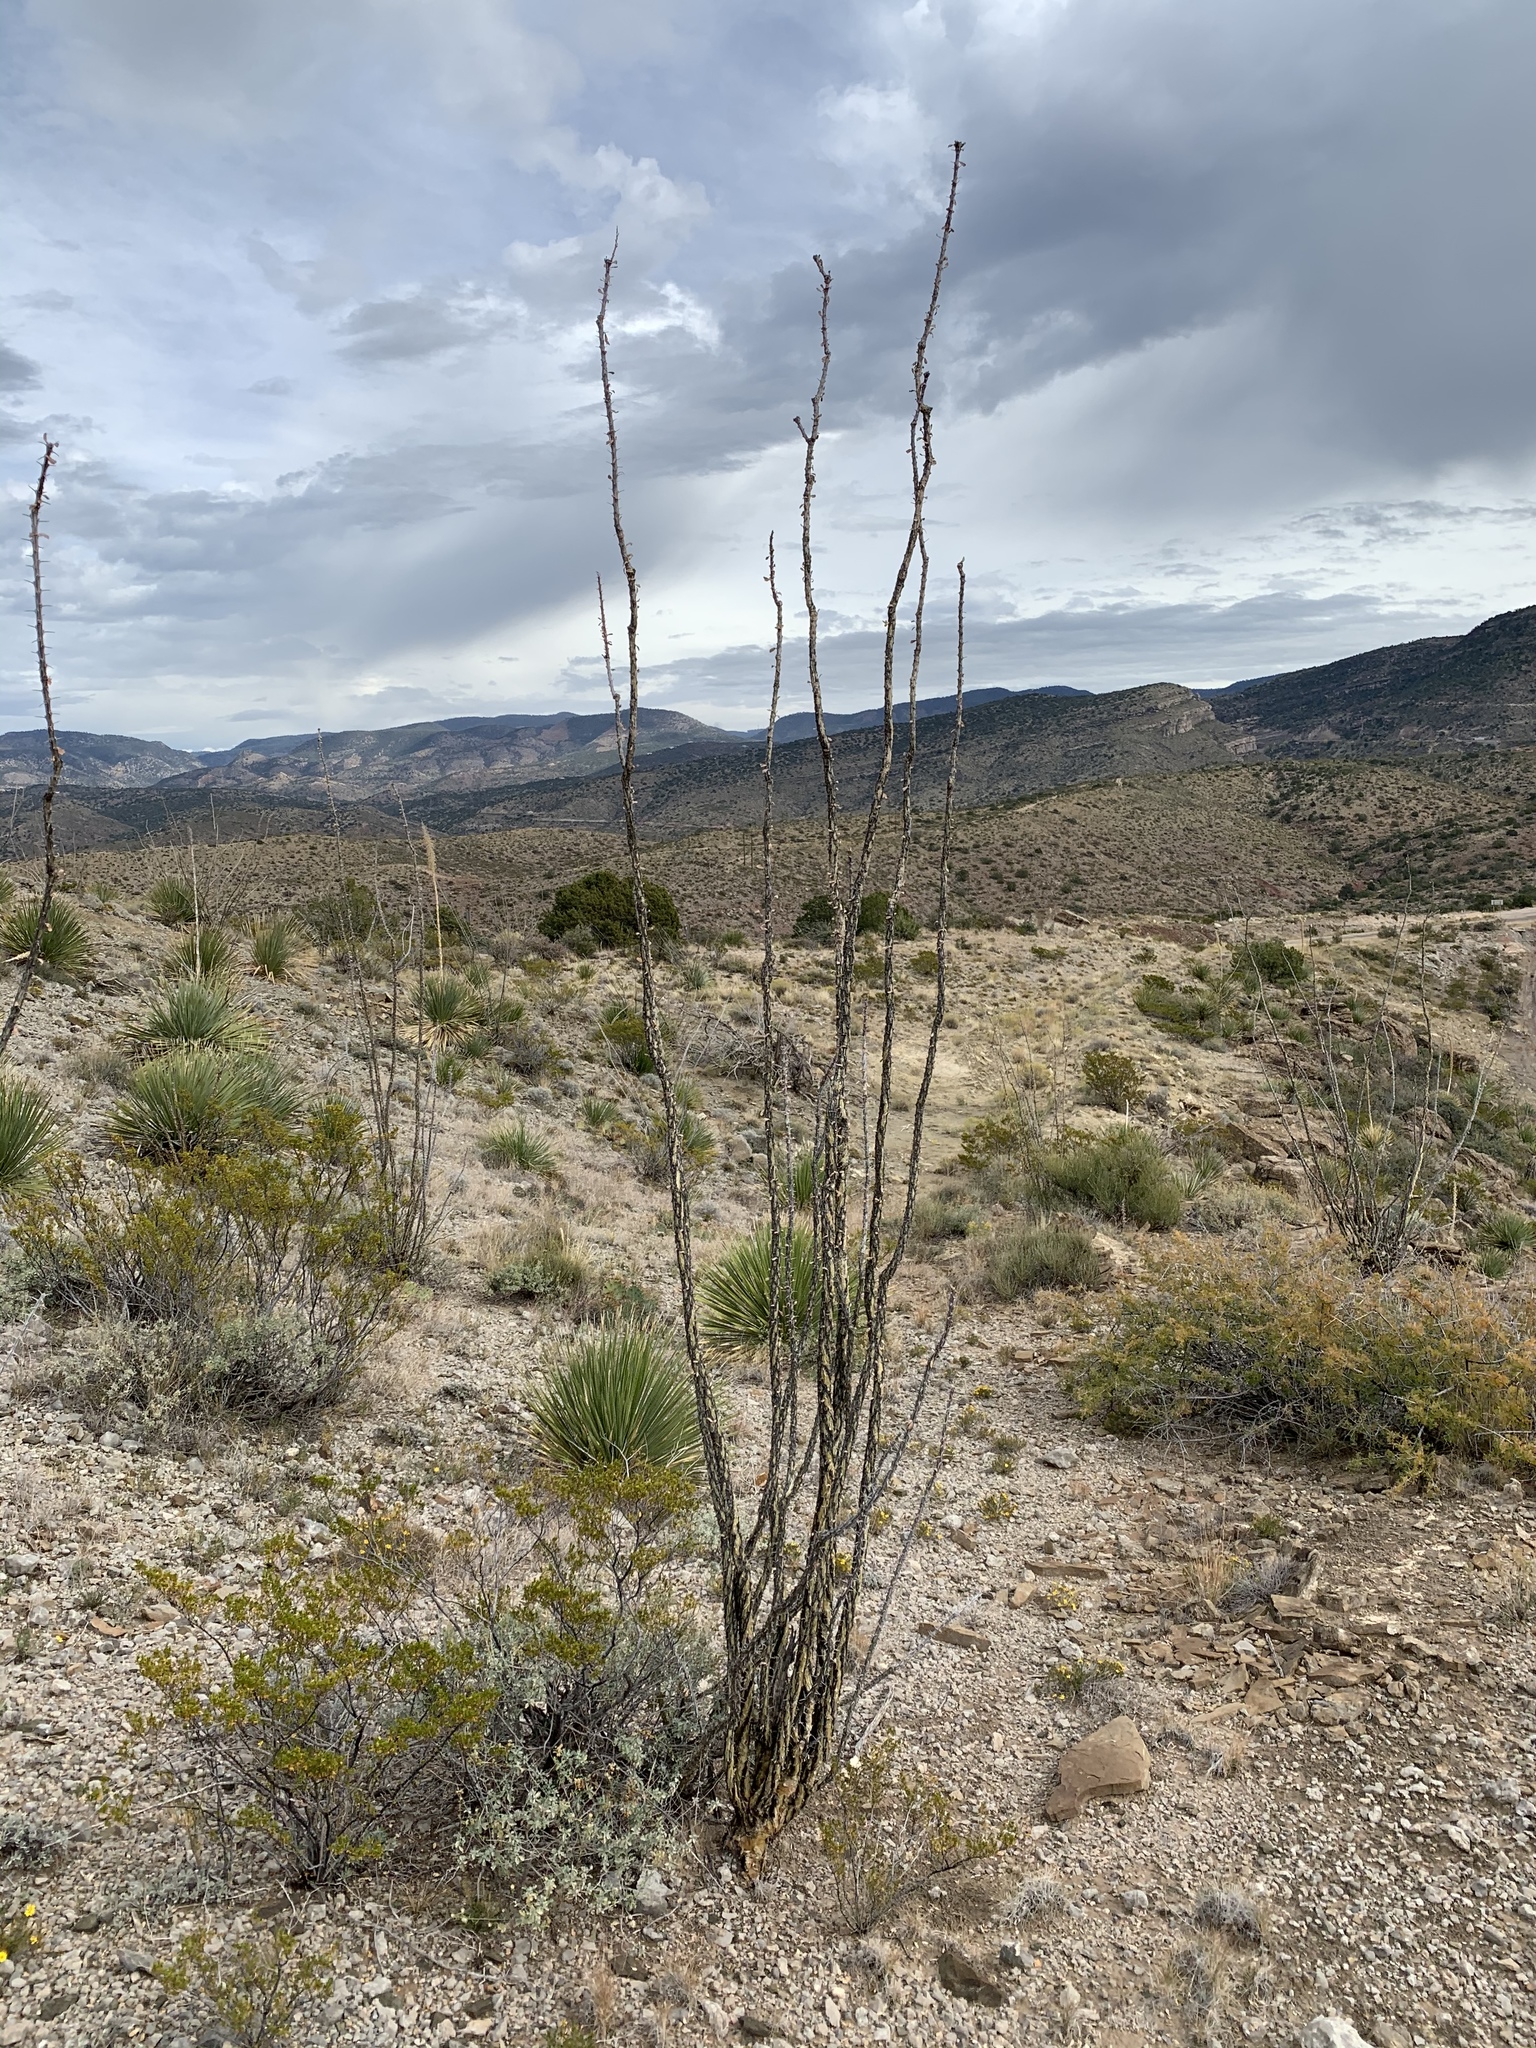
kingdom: Plantae
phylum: Tracheophyta
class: Magnoliopsida
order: Ericales
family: Fouquieriaceae
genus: Fouquieria
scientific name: Fouquieria splendens
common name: Vine-cactus
